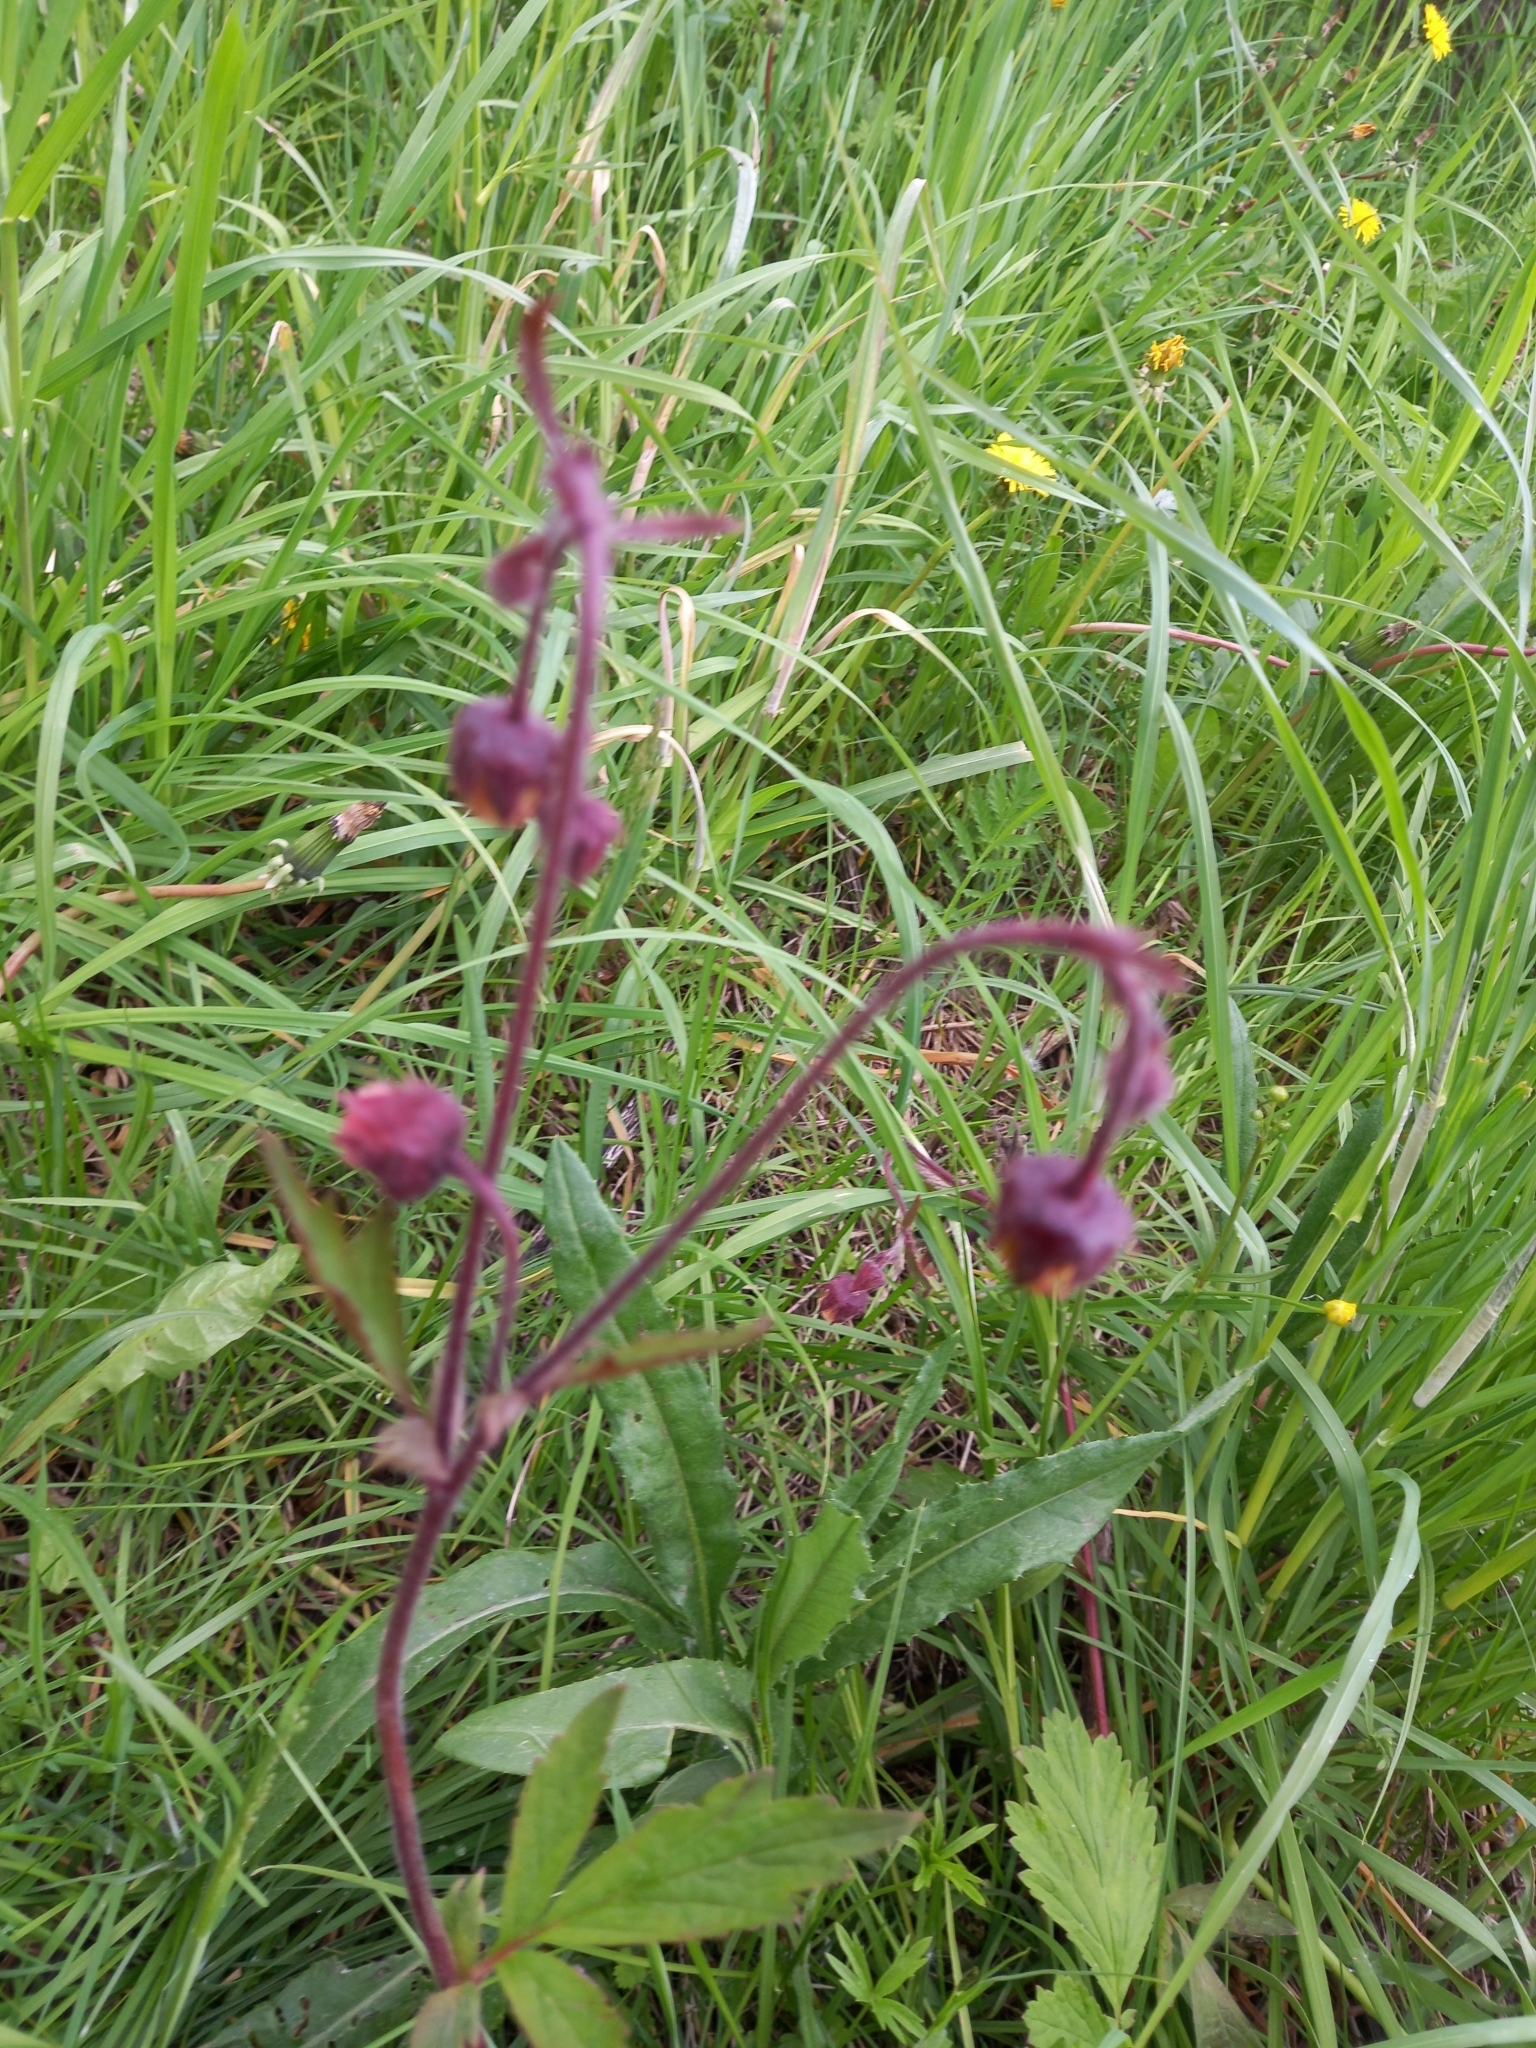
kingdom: Plantae
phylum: Tracheophyta
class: Magnoliopsida
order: Rosales
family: Rosaceae
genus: Geum
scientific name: Geum rivale
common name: Water avens
